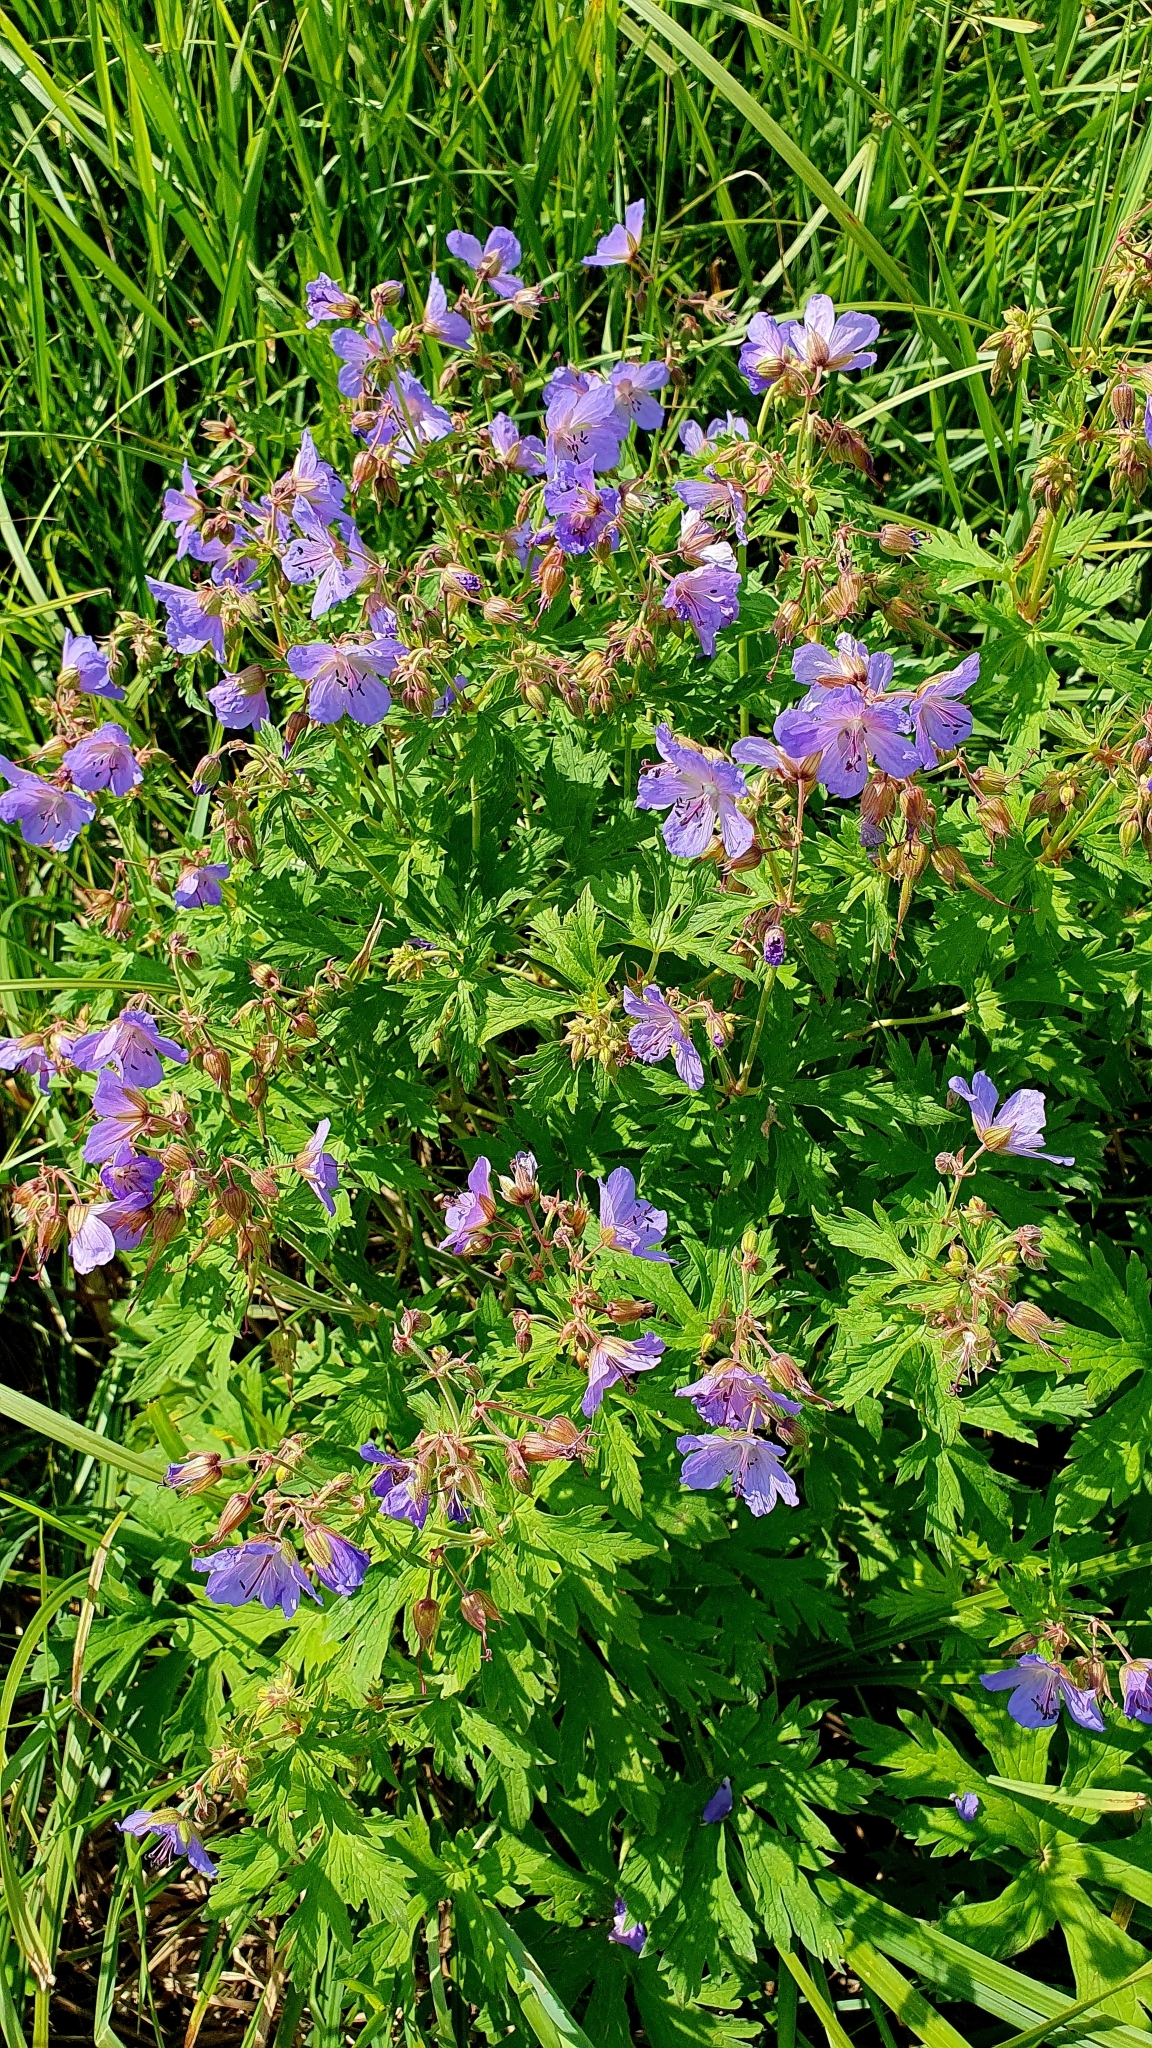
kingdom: Plantae
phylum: Tracheophyta
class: Magnoliopsida
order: Geraniales
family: Geraniaceae
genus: Geranium
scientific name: Geranium pratense
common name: Meadow crane's-bill
